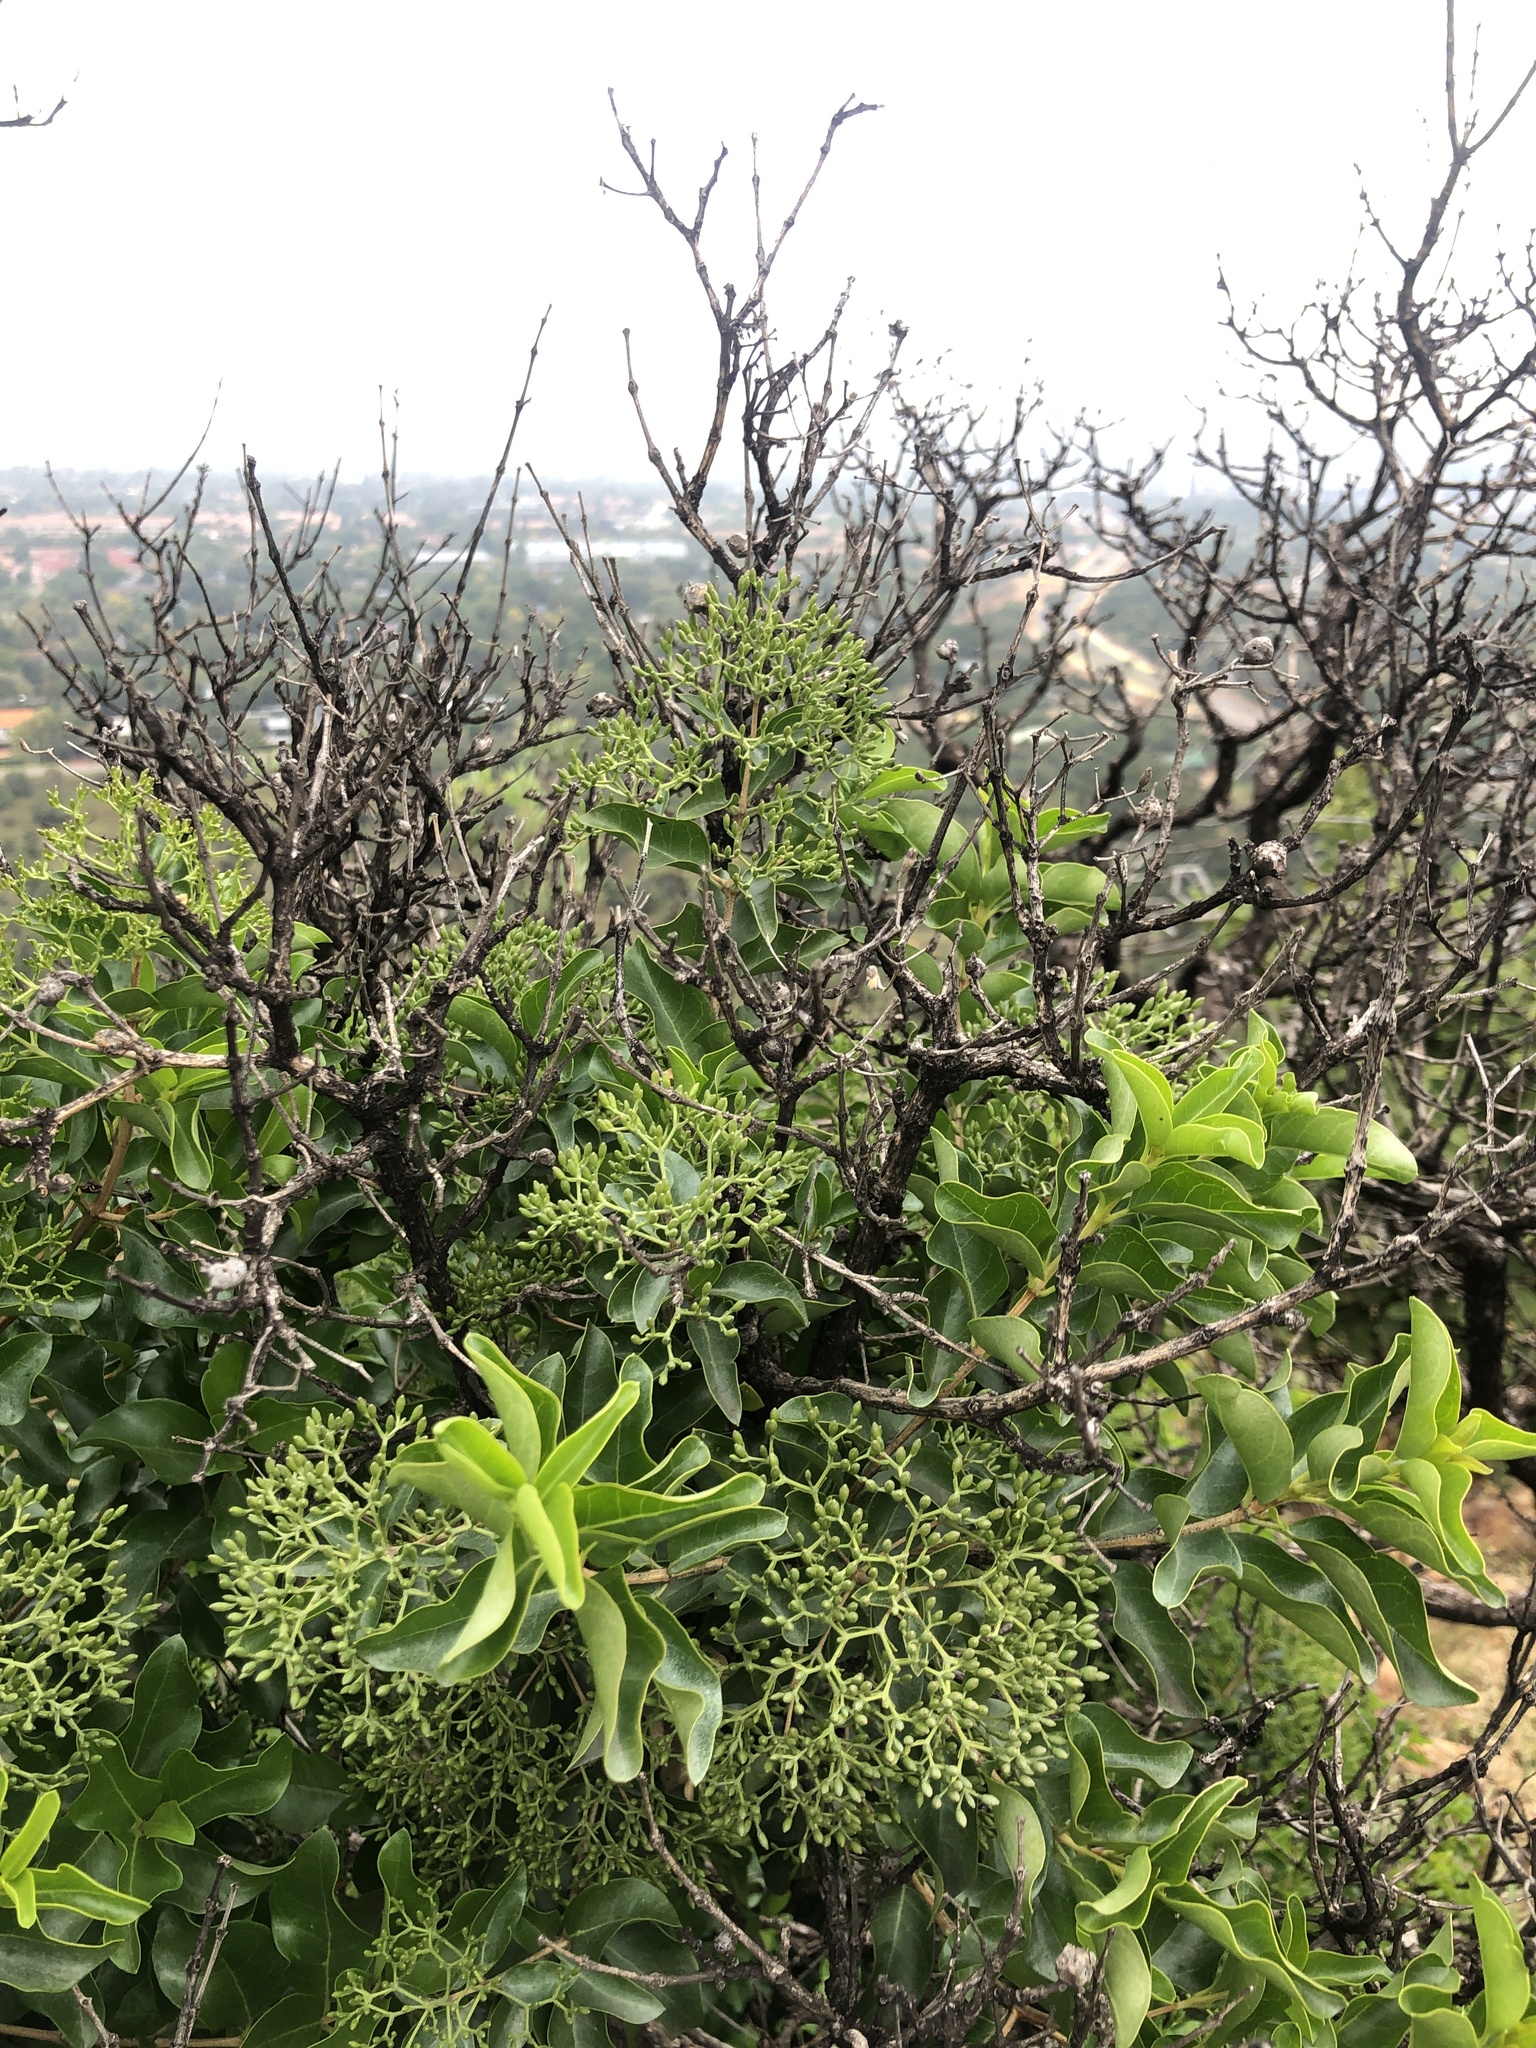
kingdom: Plantae
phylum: Tracheophyta
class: Magnoliopsida
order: Lamiales
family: Stilbaceae
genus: Nuxia
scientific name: Nuxia congesta
